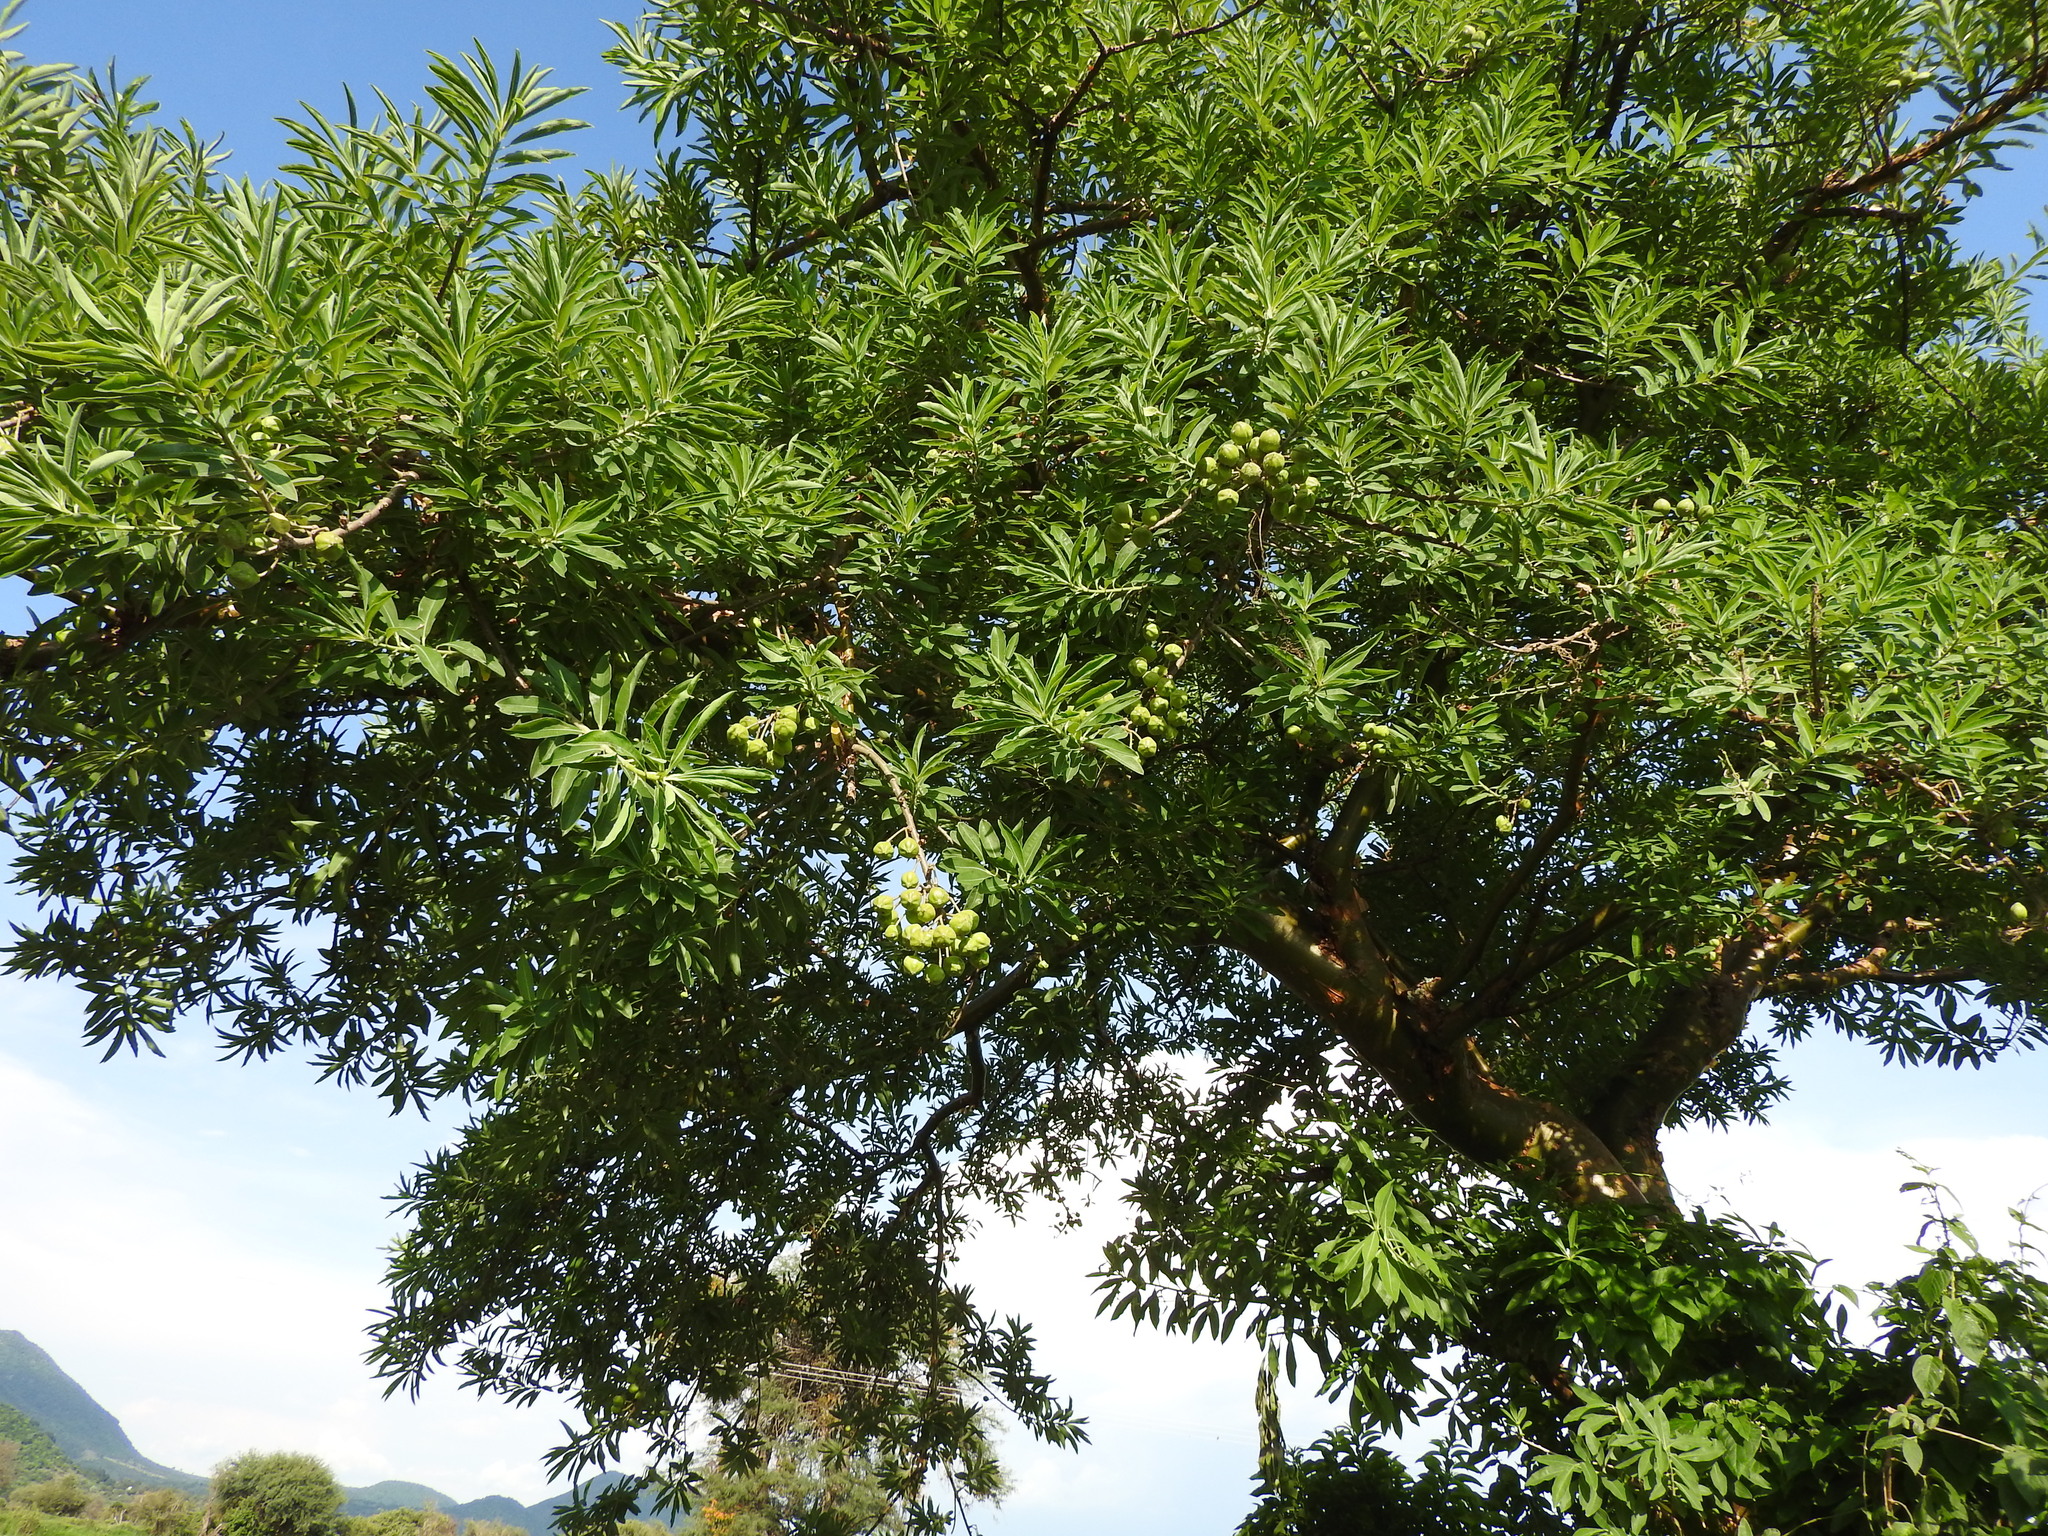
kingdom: Plantae
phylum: Tracheophyta
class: Magnoliopsida
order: Malpighiales
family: Euphorbiaceae
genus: Euphorbia
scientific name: Euphorbia tanquahuete
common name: Leche maria
